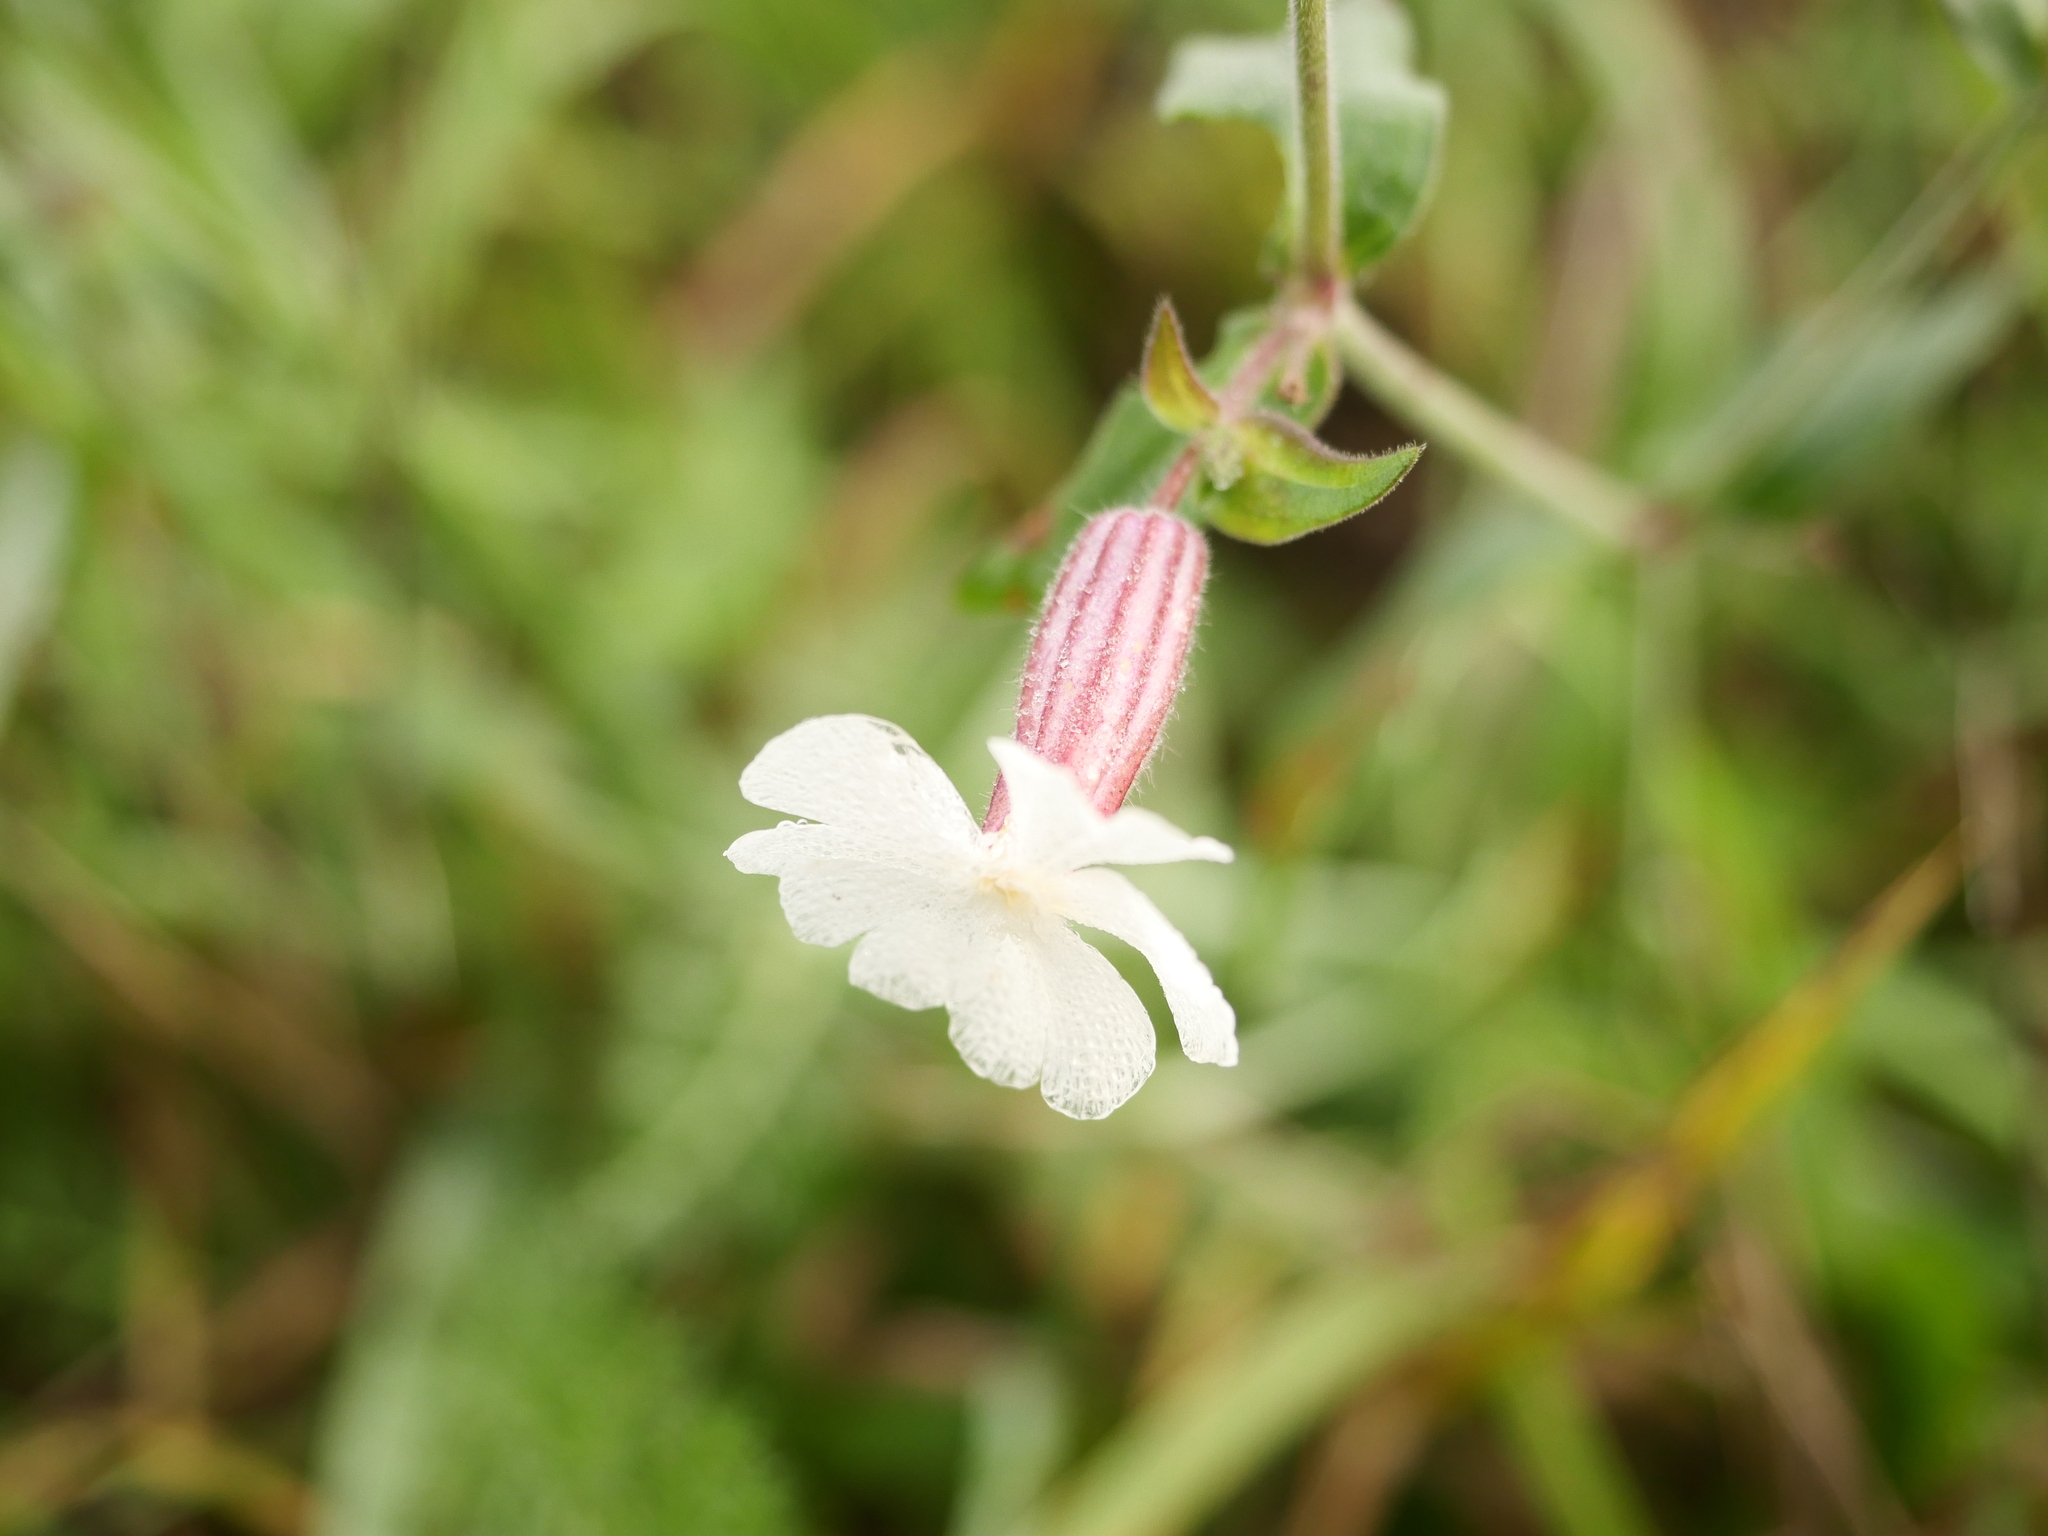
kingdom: Plantae
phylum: Tracheophyta
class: Magnoliopsida
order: Caryophyllales
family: Caryophyllaceae
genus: Silene
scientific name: Silene latifolia
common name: White campion
